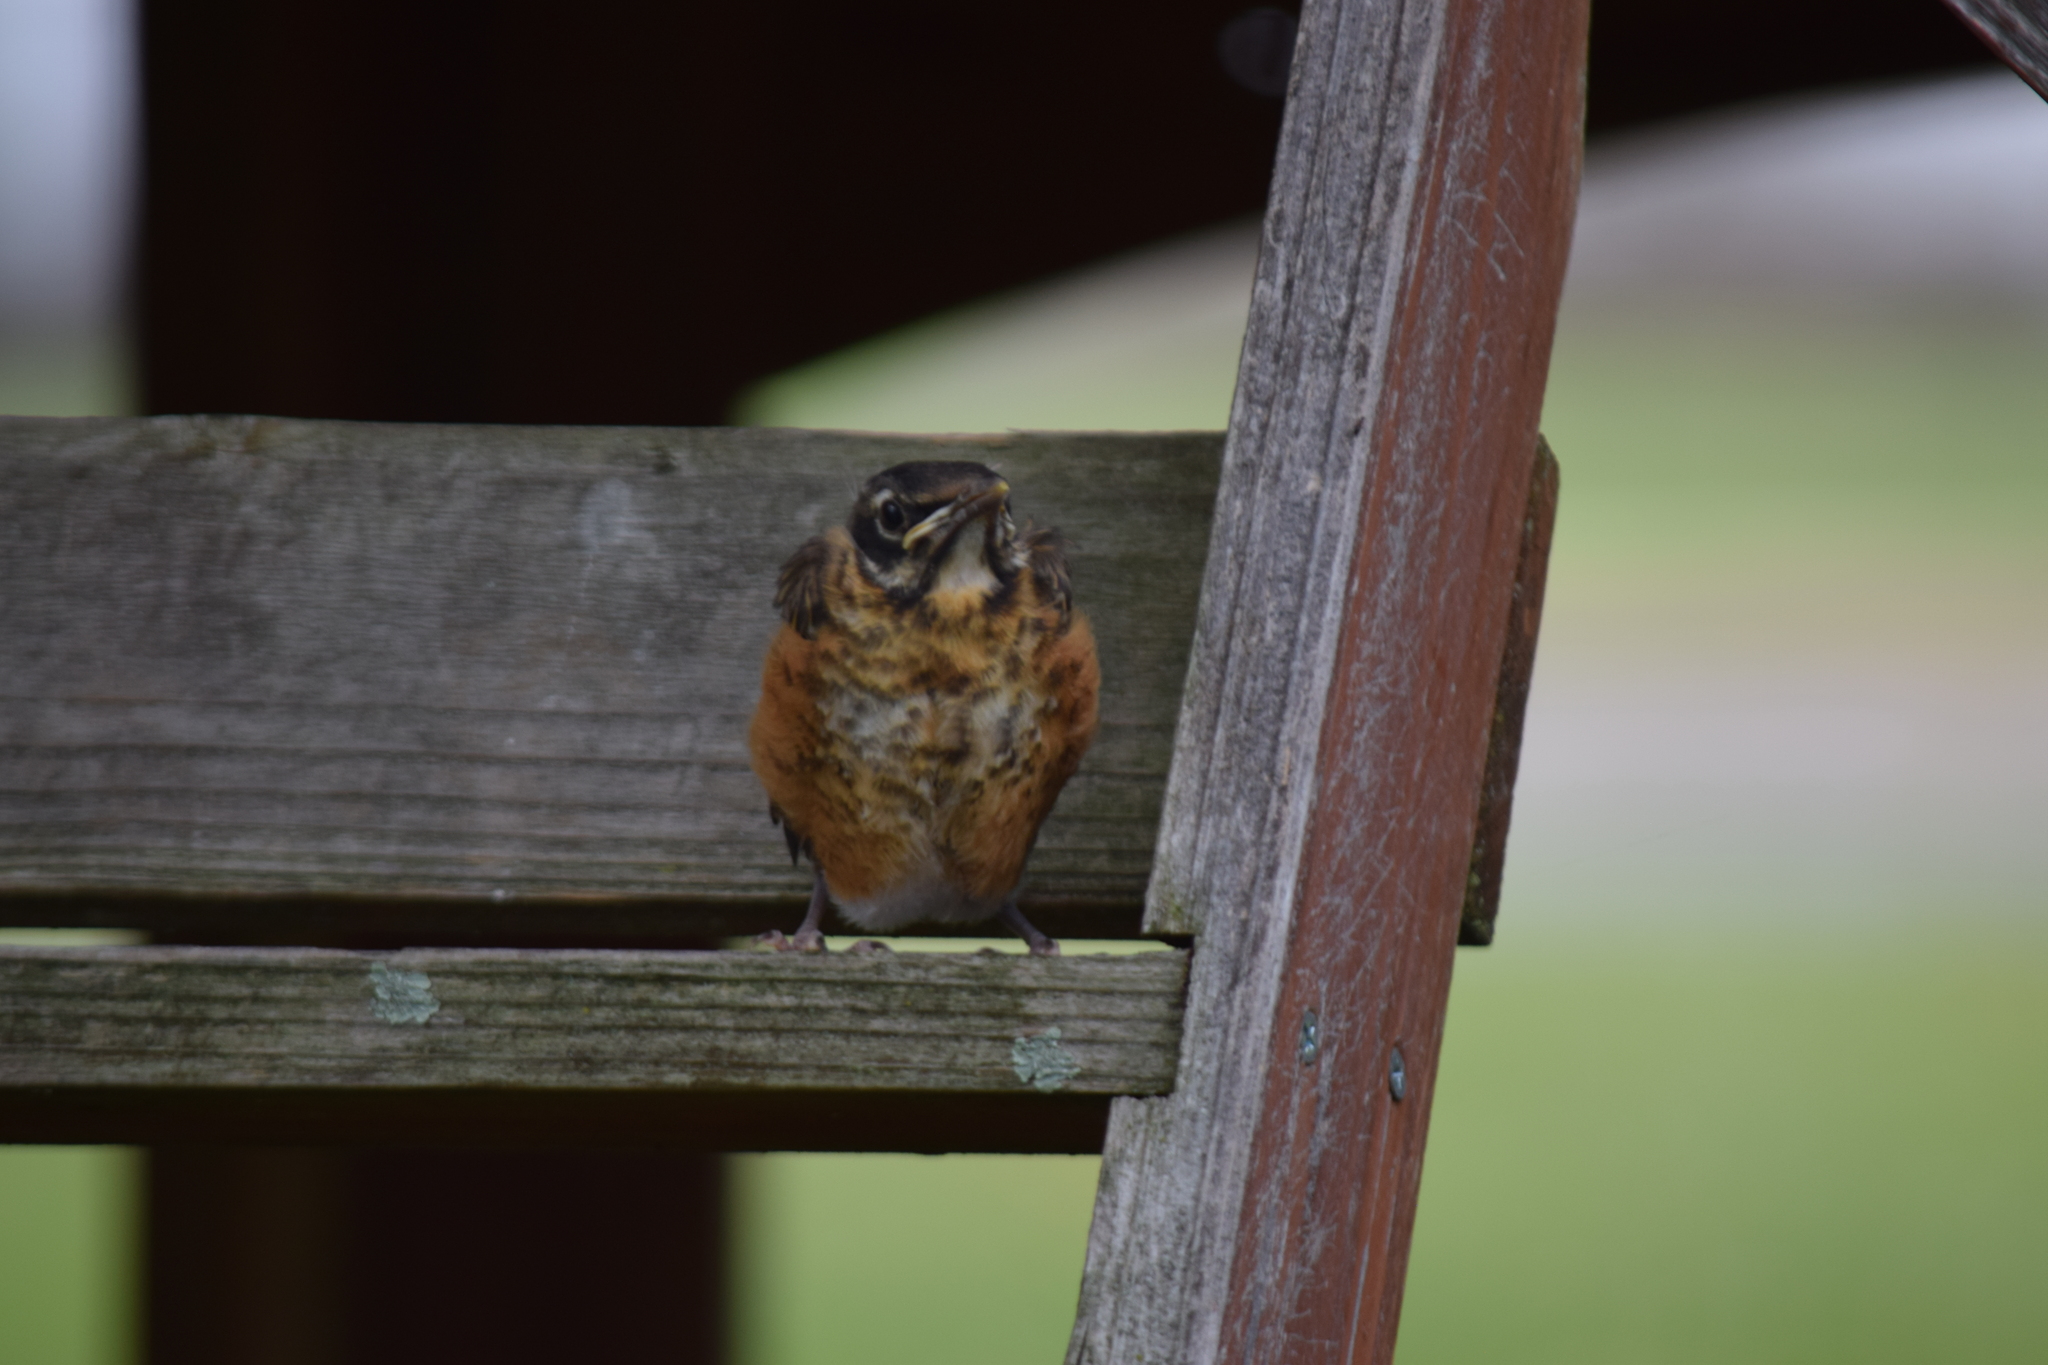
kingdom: Animalia
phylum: Chordata
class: Aves
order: Passeriformes
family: Turdidae
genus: Turdus
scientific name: Turdus migratorius
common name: American robin
